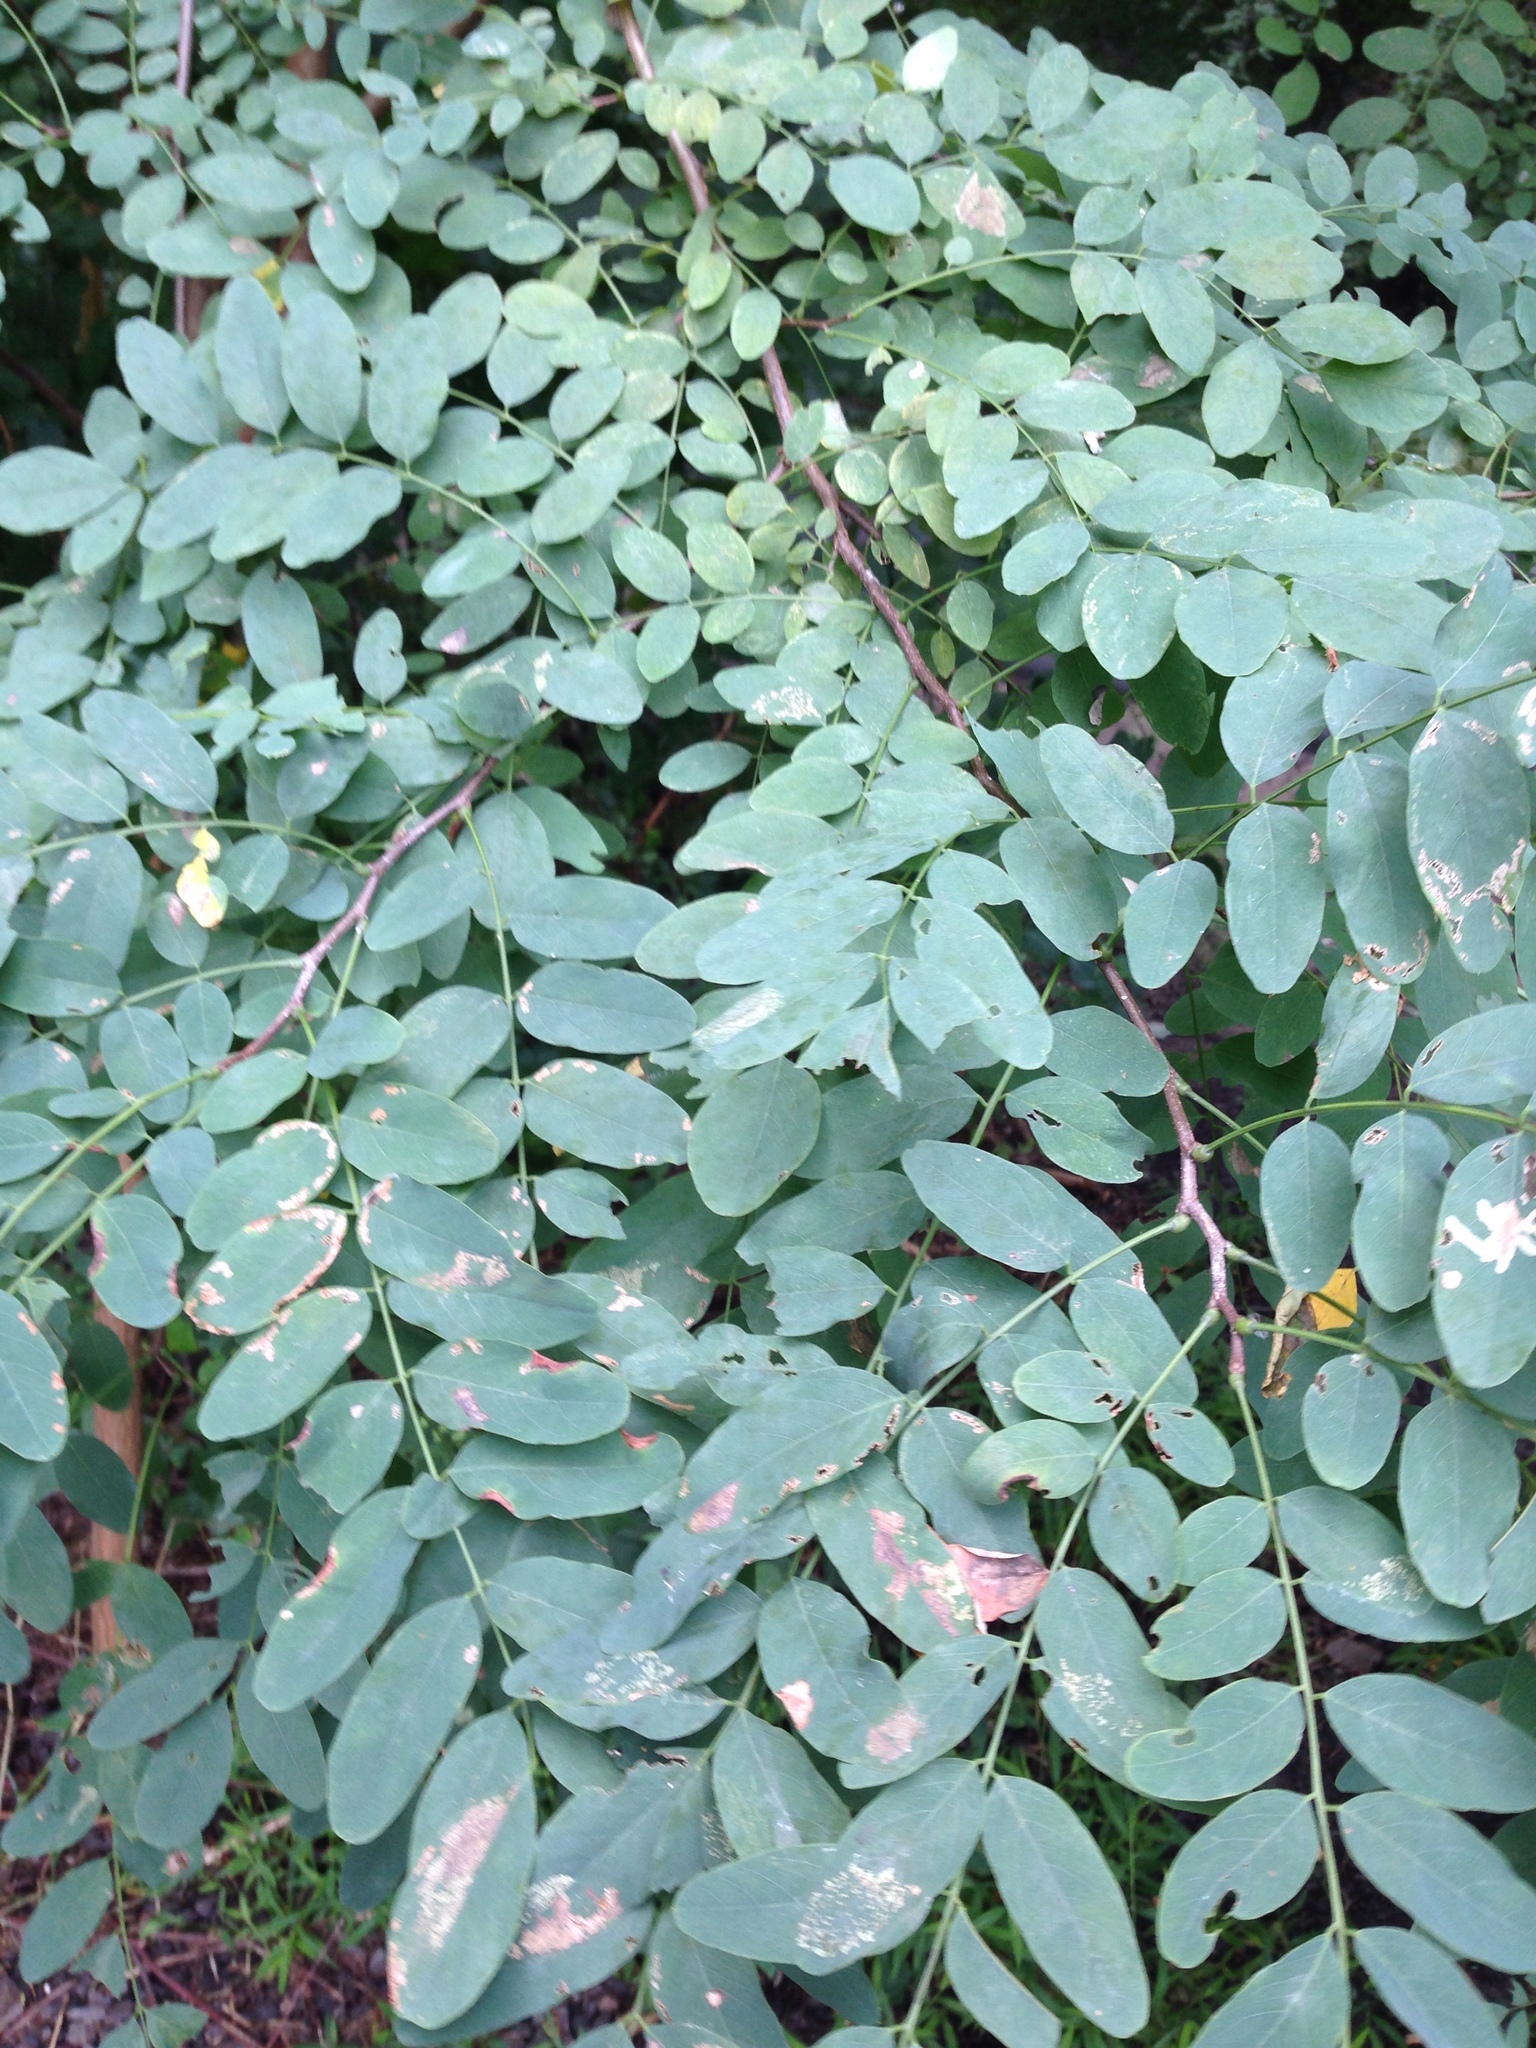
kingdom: Plantae
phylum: Tracheophyta
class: Magnoliopsida
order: Fabales
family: Fabaceae
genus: Robinia
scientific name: Robinia pseudoacacia
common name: Black locust
